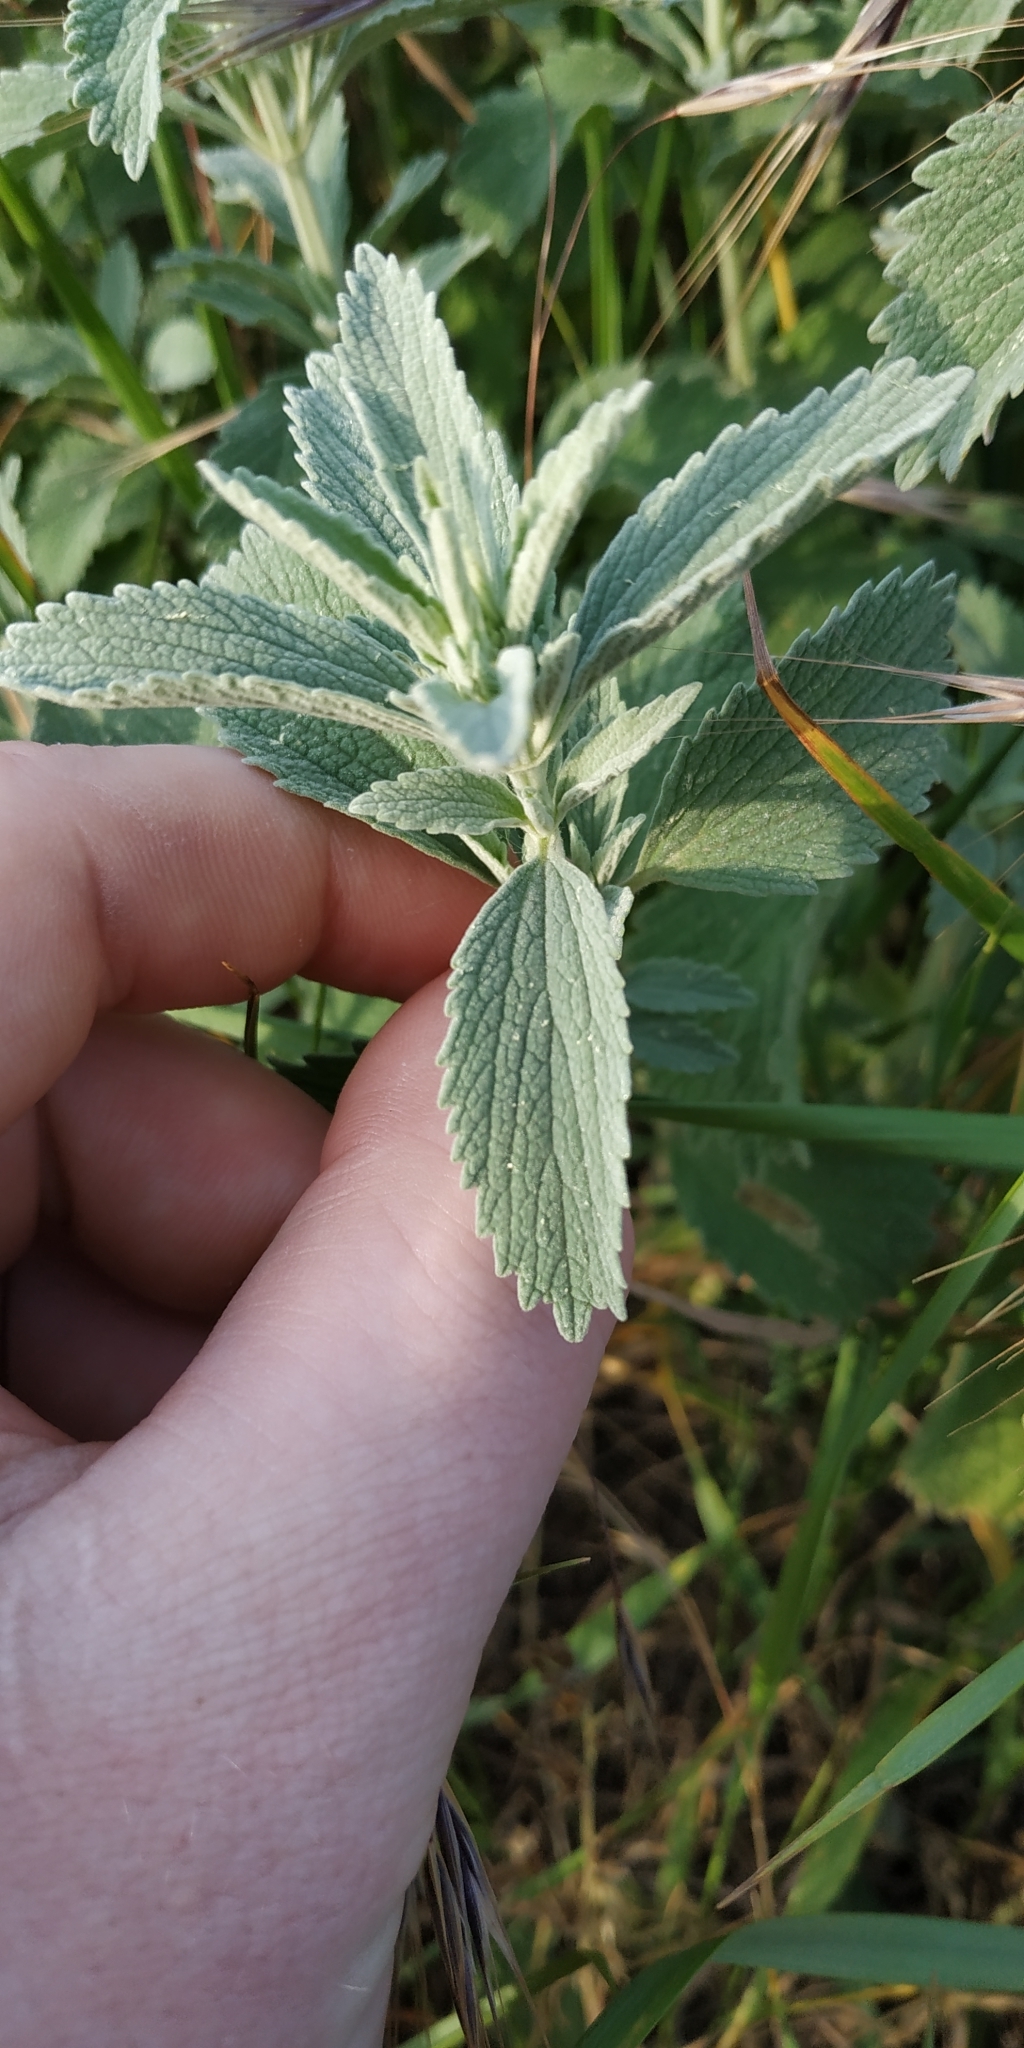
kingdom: Plantae
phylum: Tracheophyta
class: Magnoliopsida
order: Lamiales
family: Lamiaceae
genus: Marrubium
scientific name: Marrubium peregrinum
